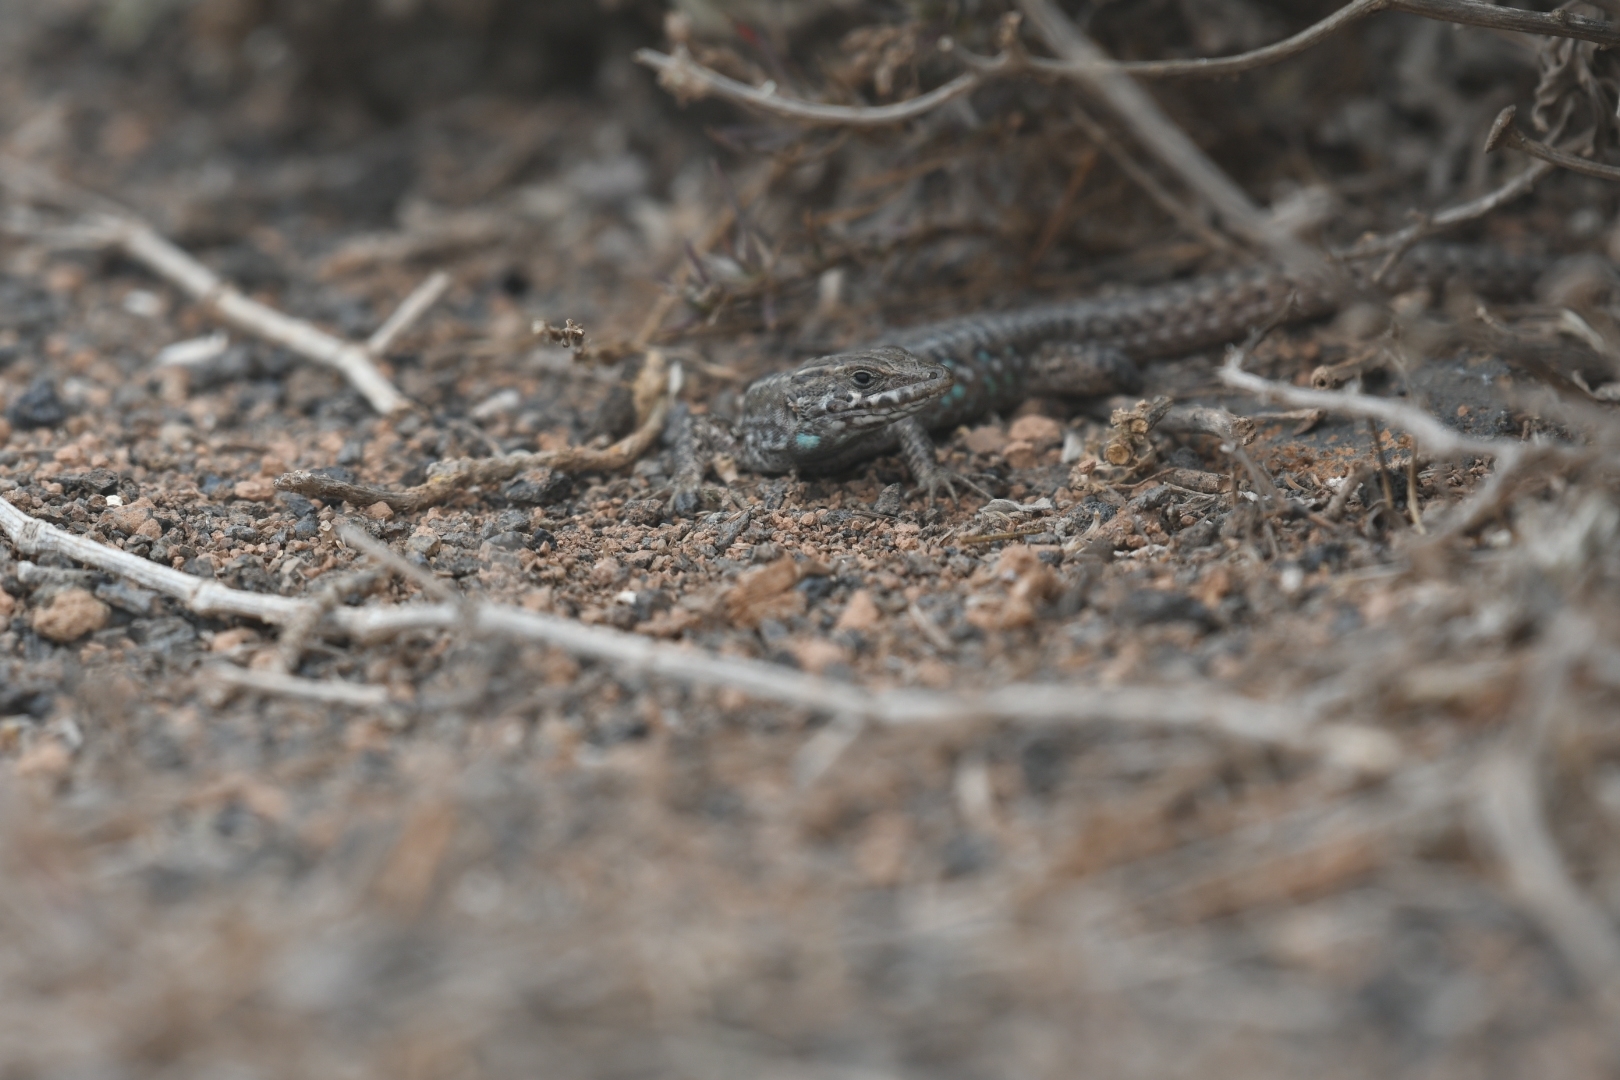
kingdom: Animalia
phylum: Chordata
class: Squamata
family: Lacertidae
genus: Gallotia
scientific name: Gallotia atlantica
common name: Atlantic lizard
